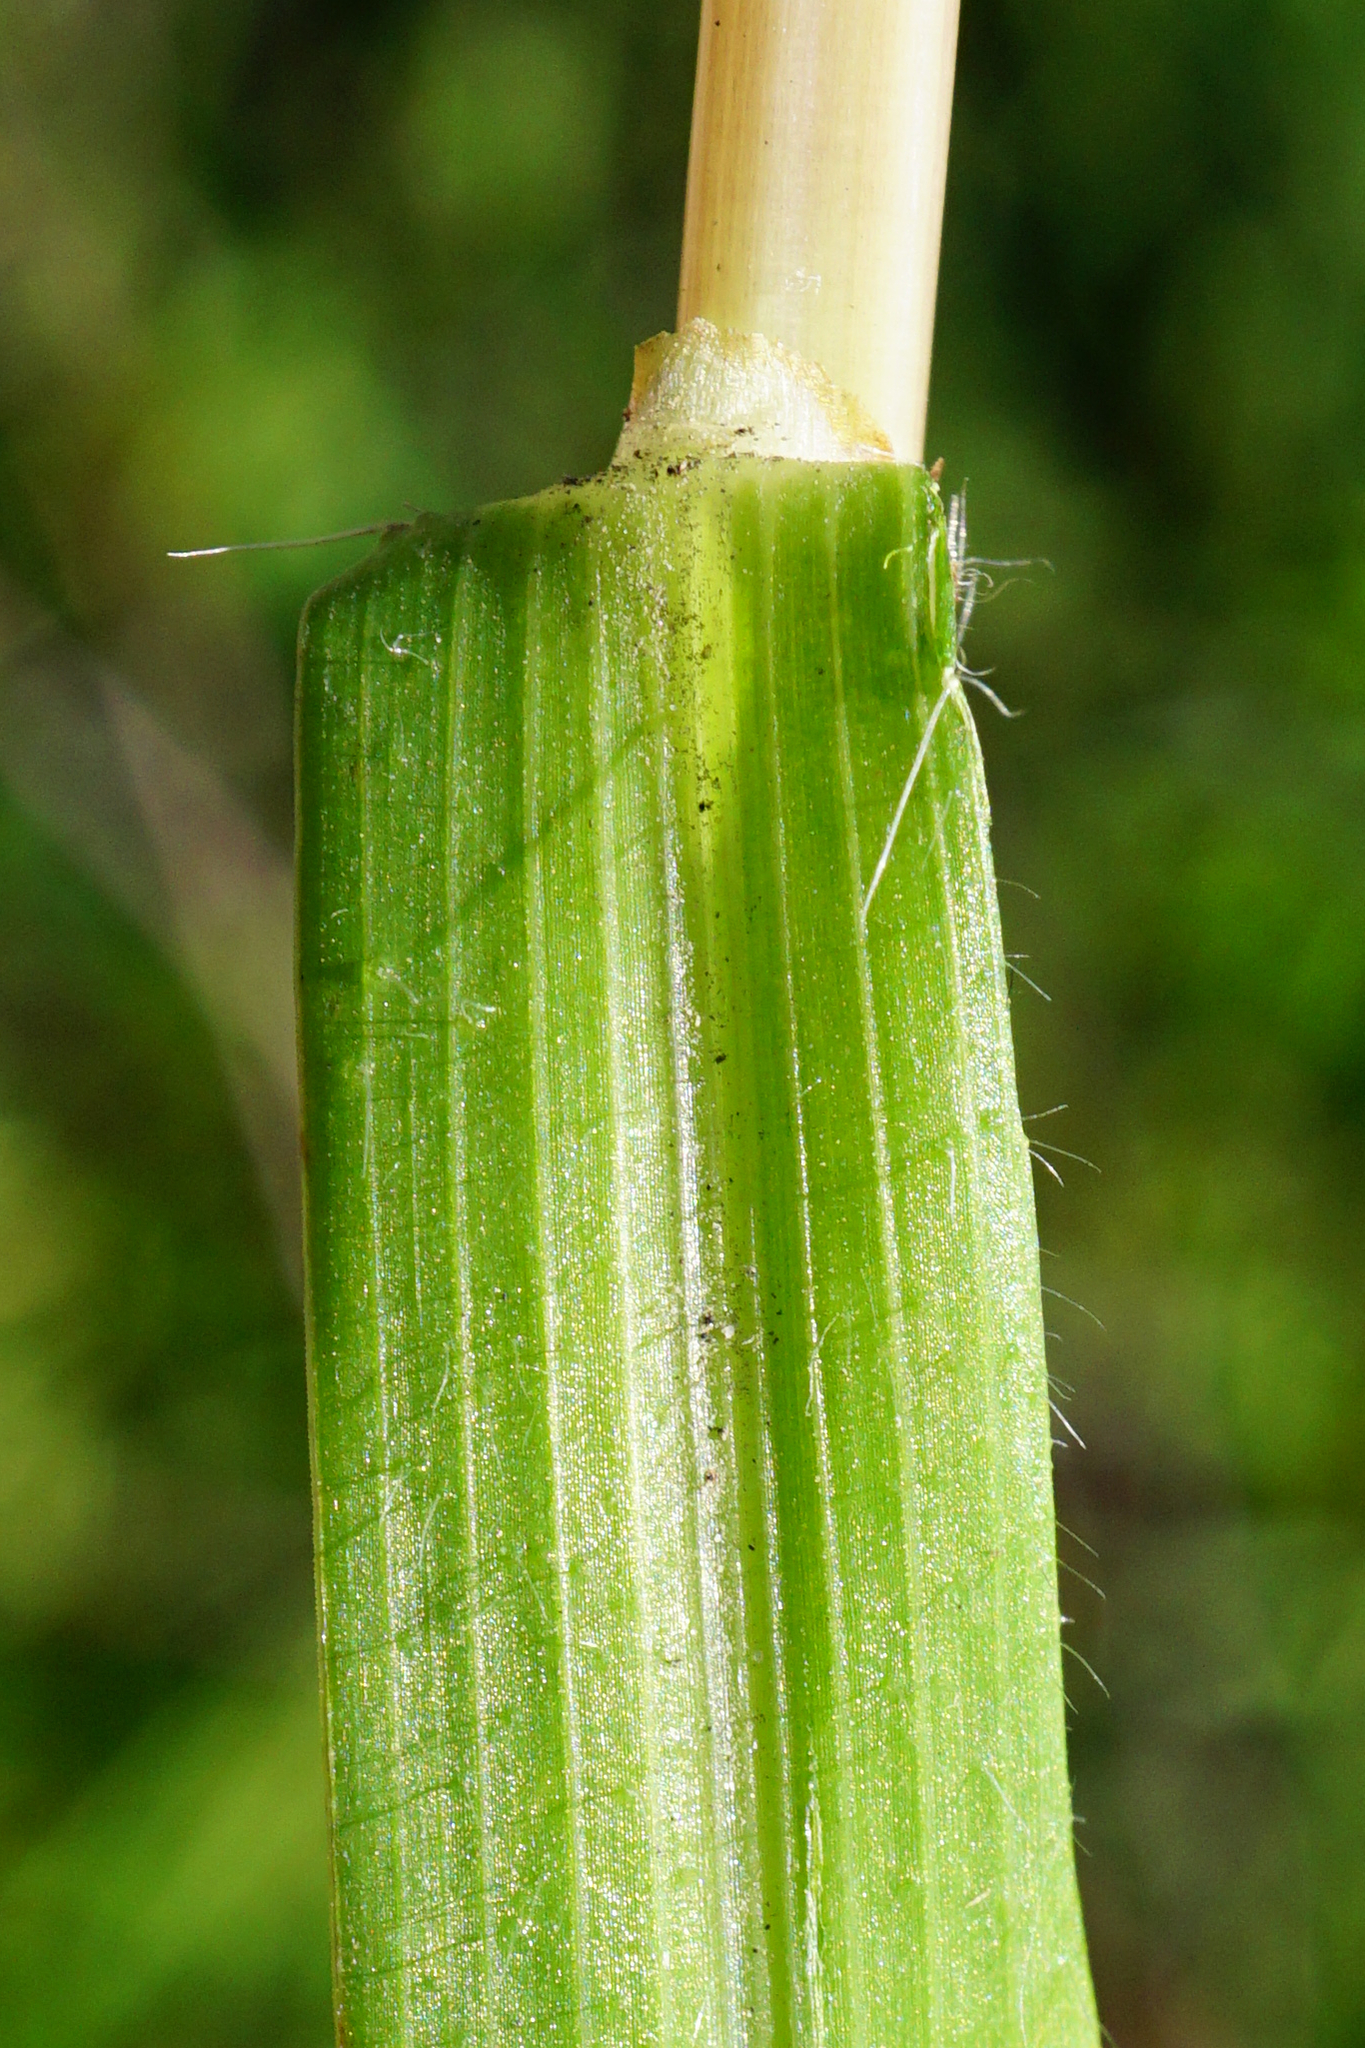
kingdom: Plantae
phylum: Tracheophyta
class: Liliopsida
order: Poales
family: Poaceae
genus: Digitaria
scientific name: Digitaria sanguinalis
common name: Hairy crabgrass
